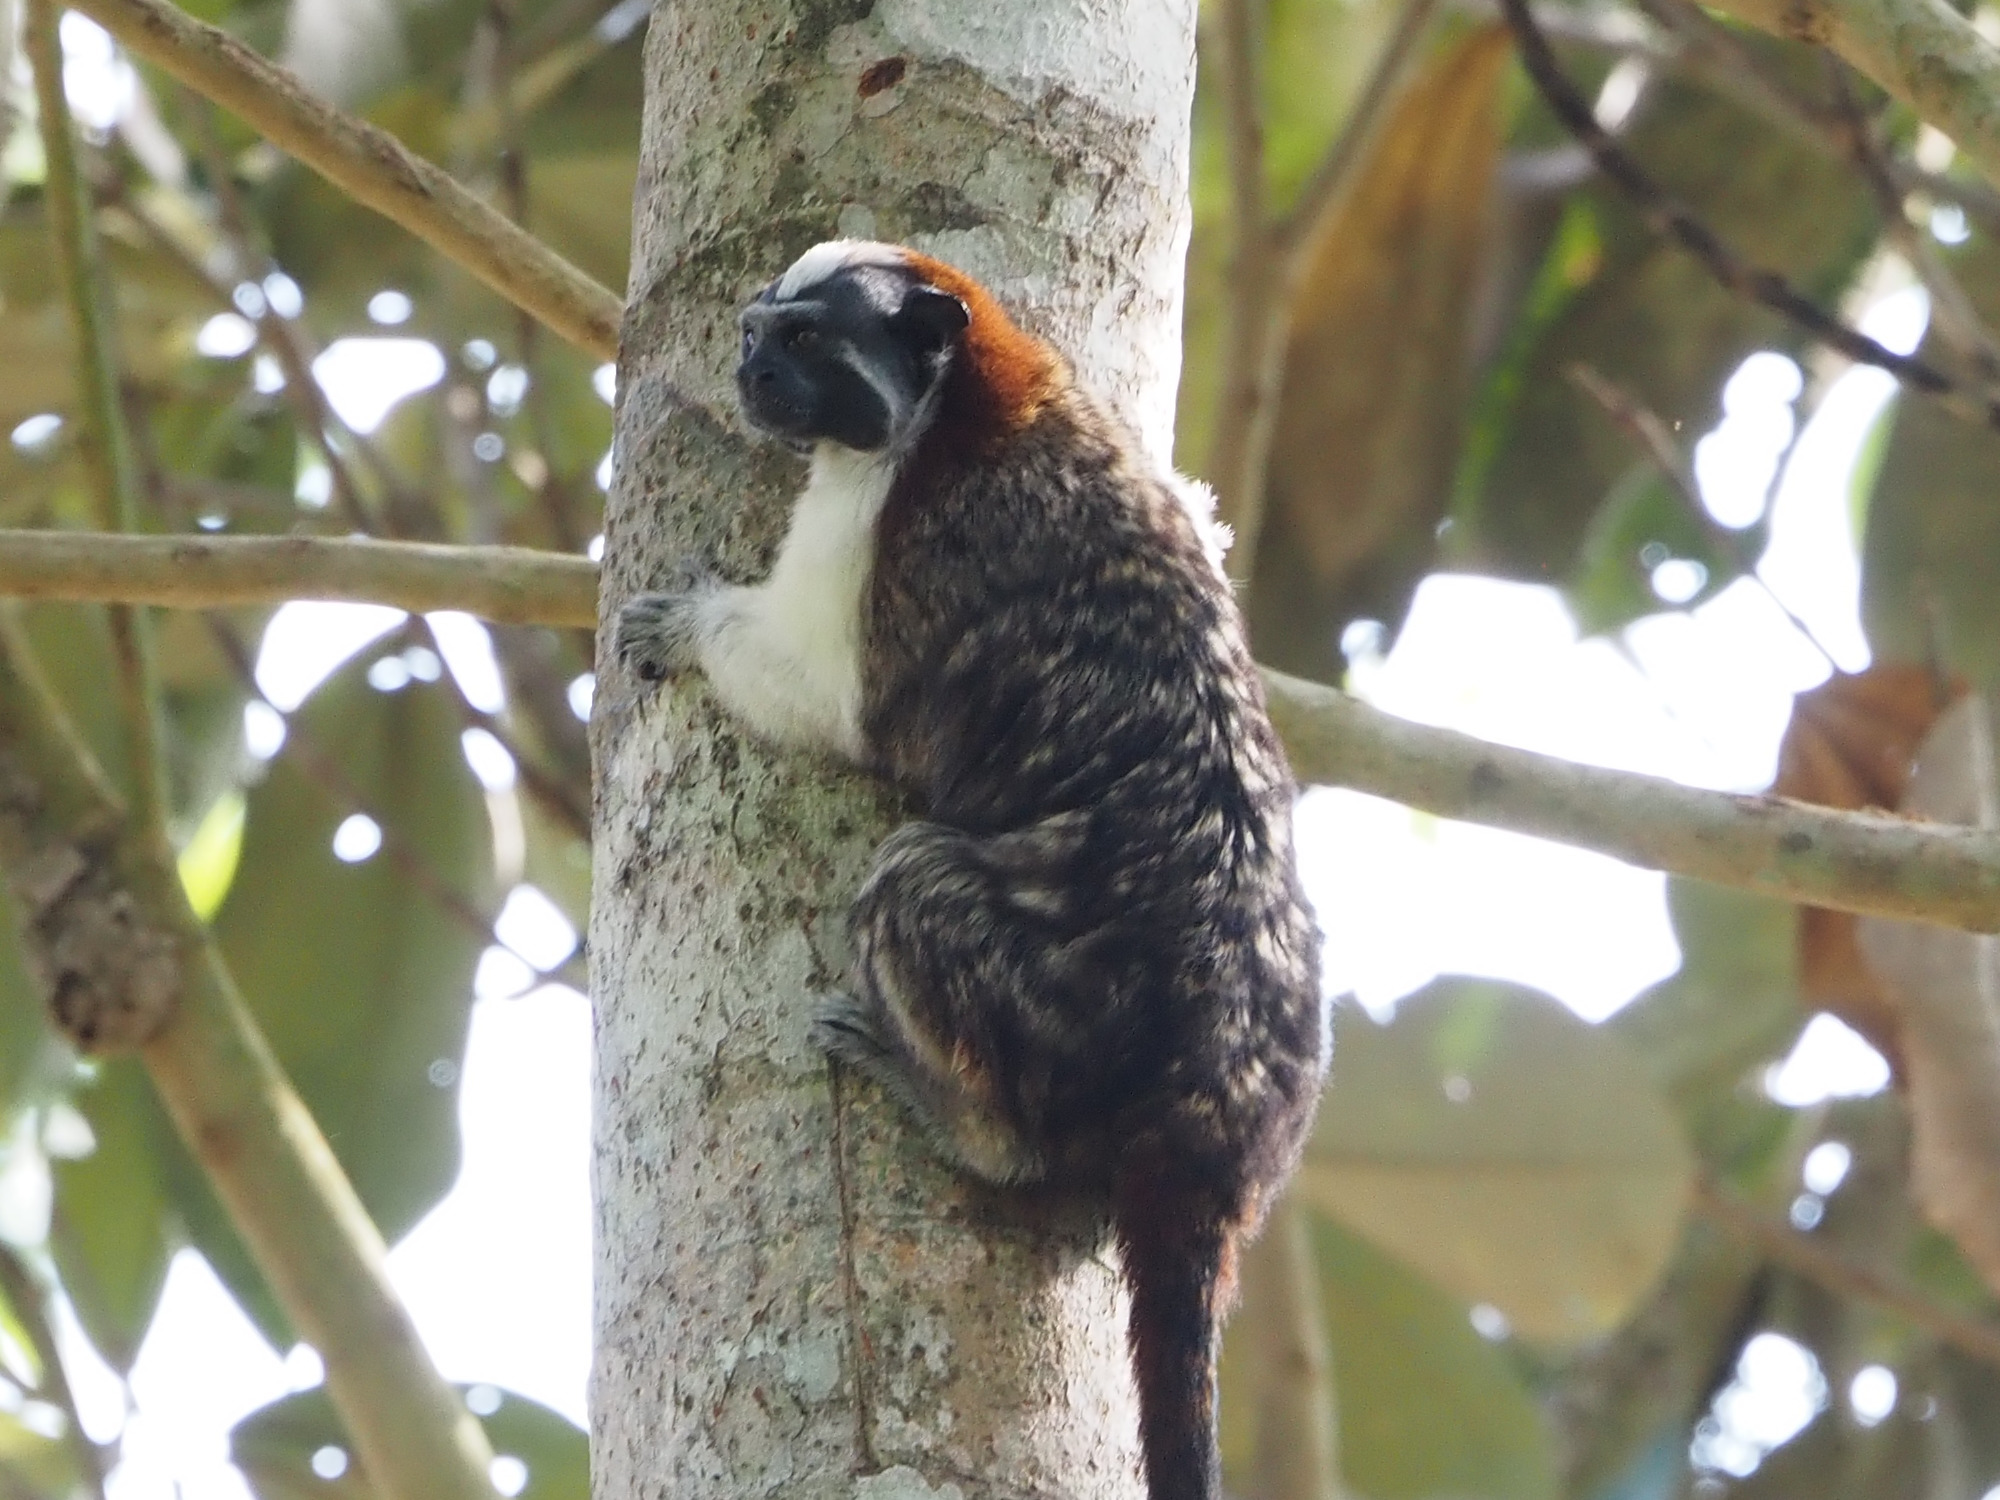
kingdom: Animalia
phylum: Chordata
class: Mammalia
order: Primates
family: Callitrichidae
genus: Saguinus
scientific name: Saguinus geoffroyi
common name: Geoffroy s tamarin
